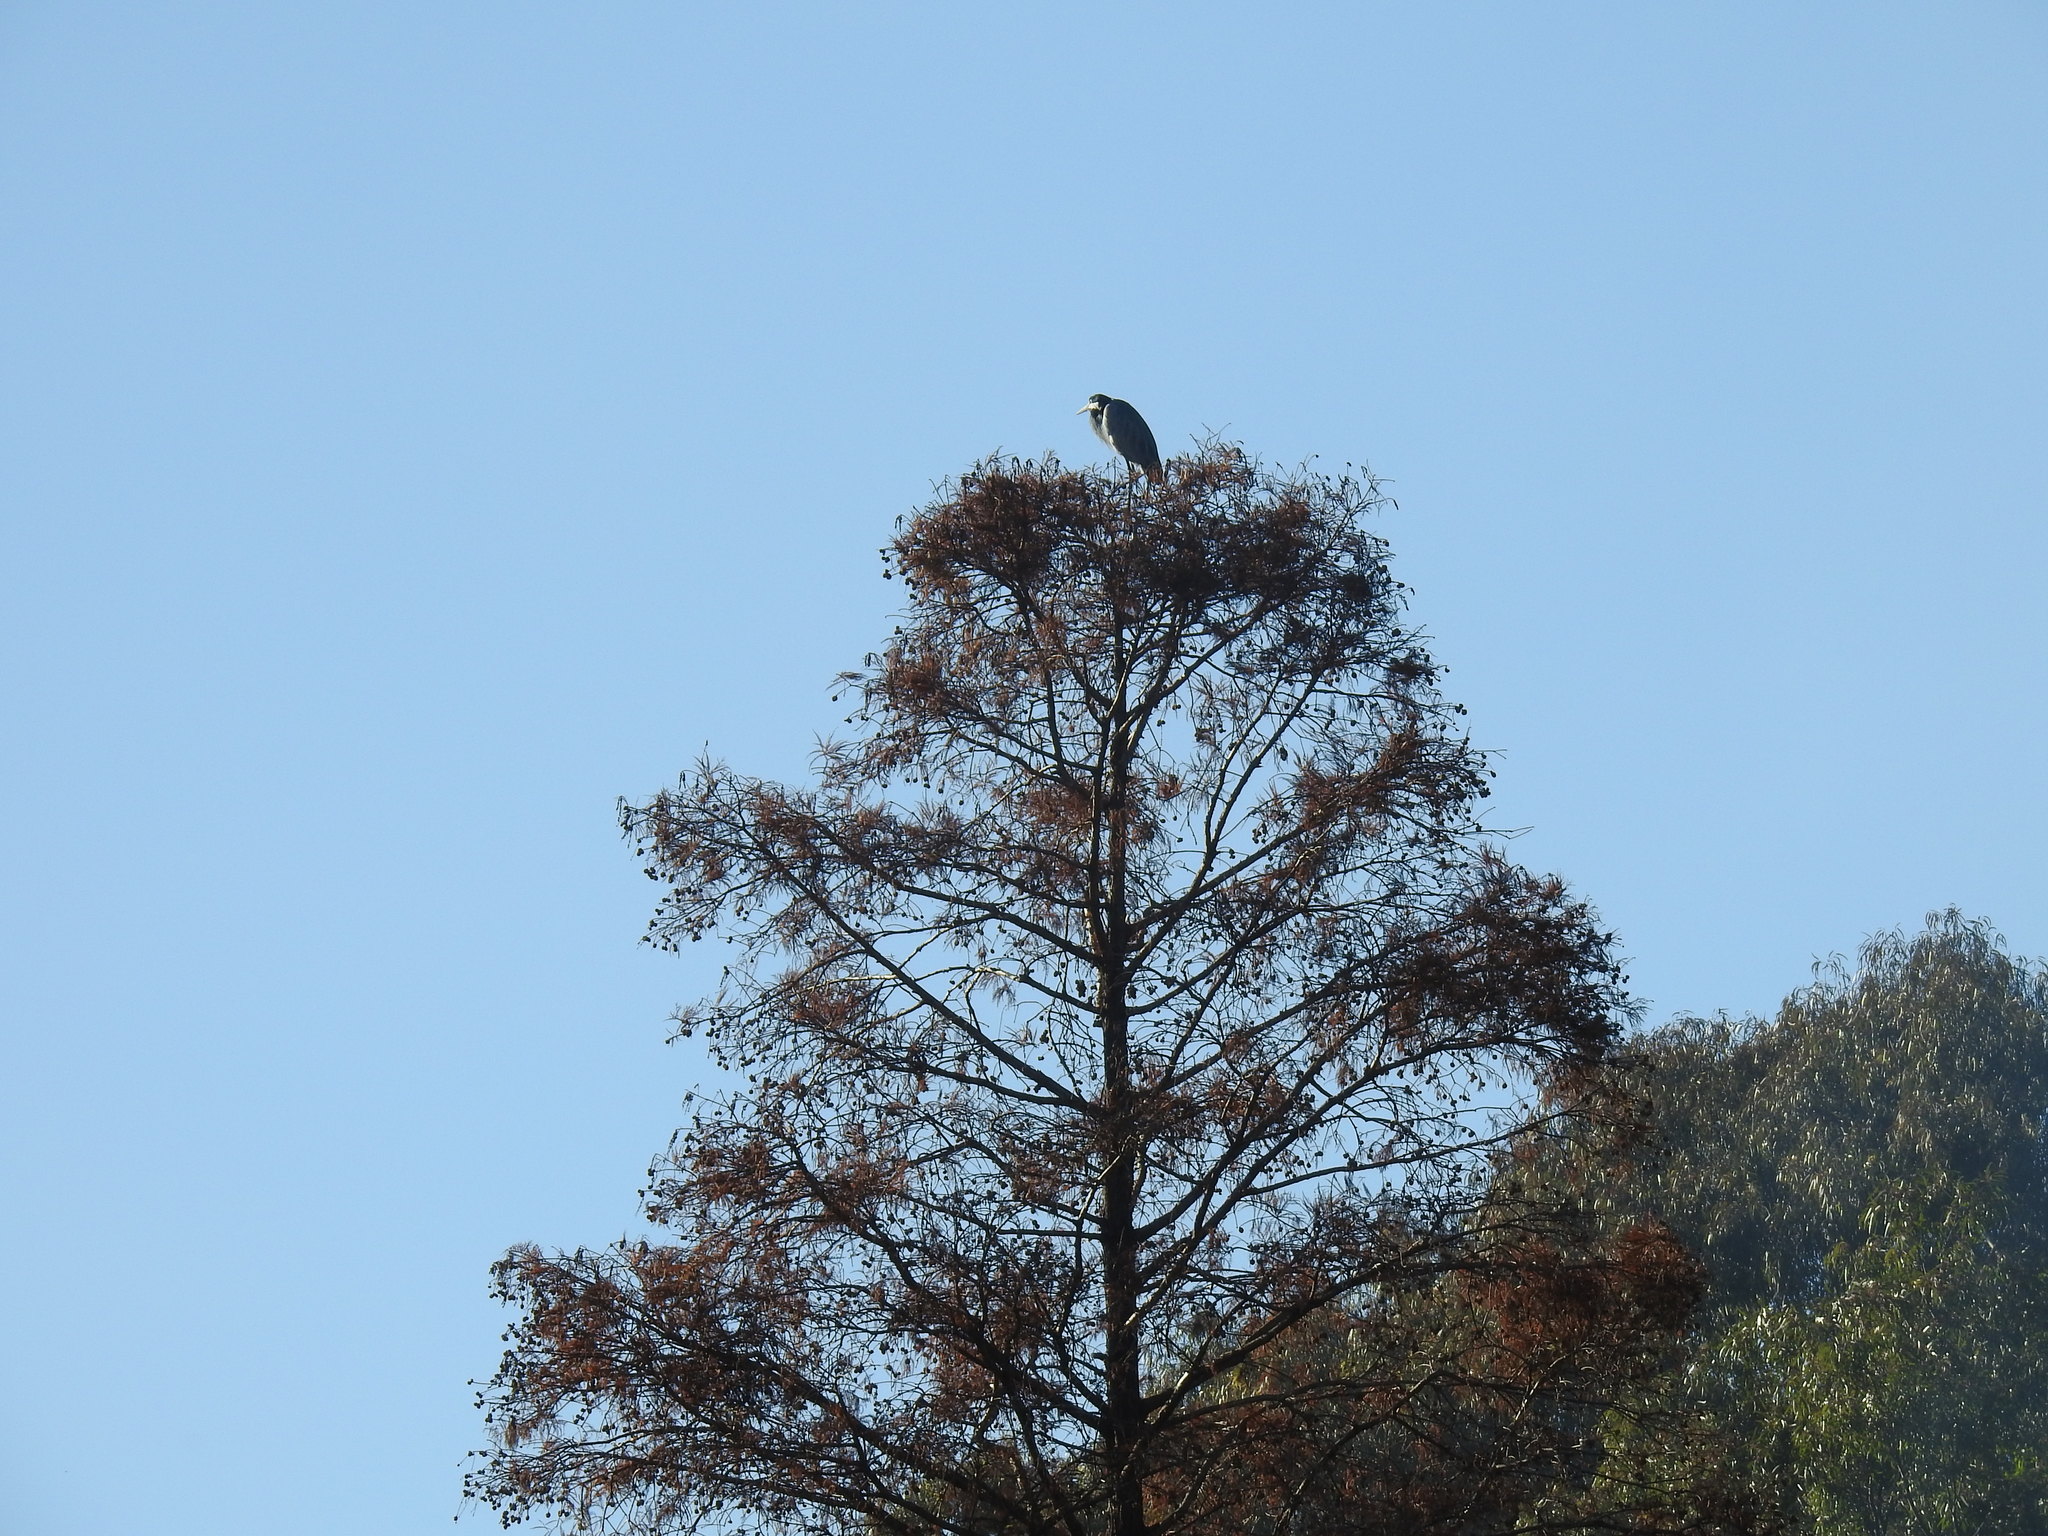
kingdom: Animalia
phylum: Chordata
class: Aves
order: Pelecaniformes
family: Ardeidae
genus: Ardea
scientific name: Ardea melanocephala
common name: Black-headed heron
